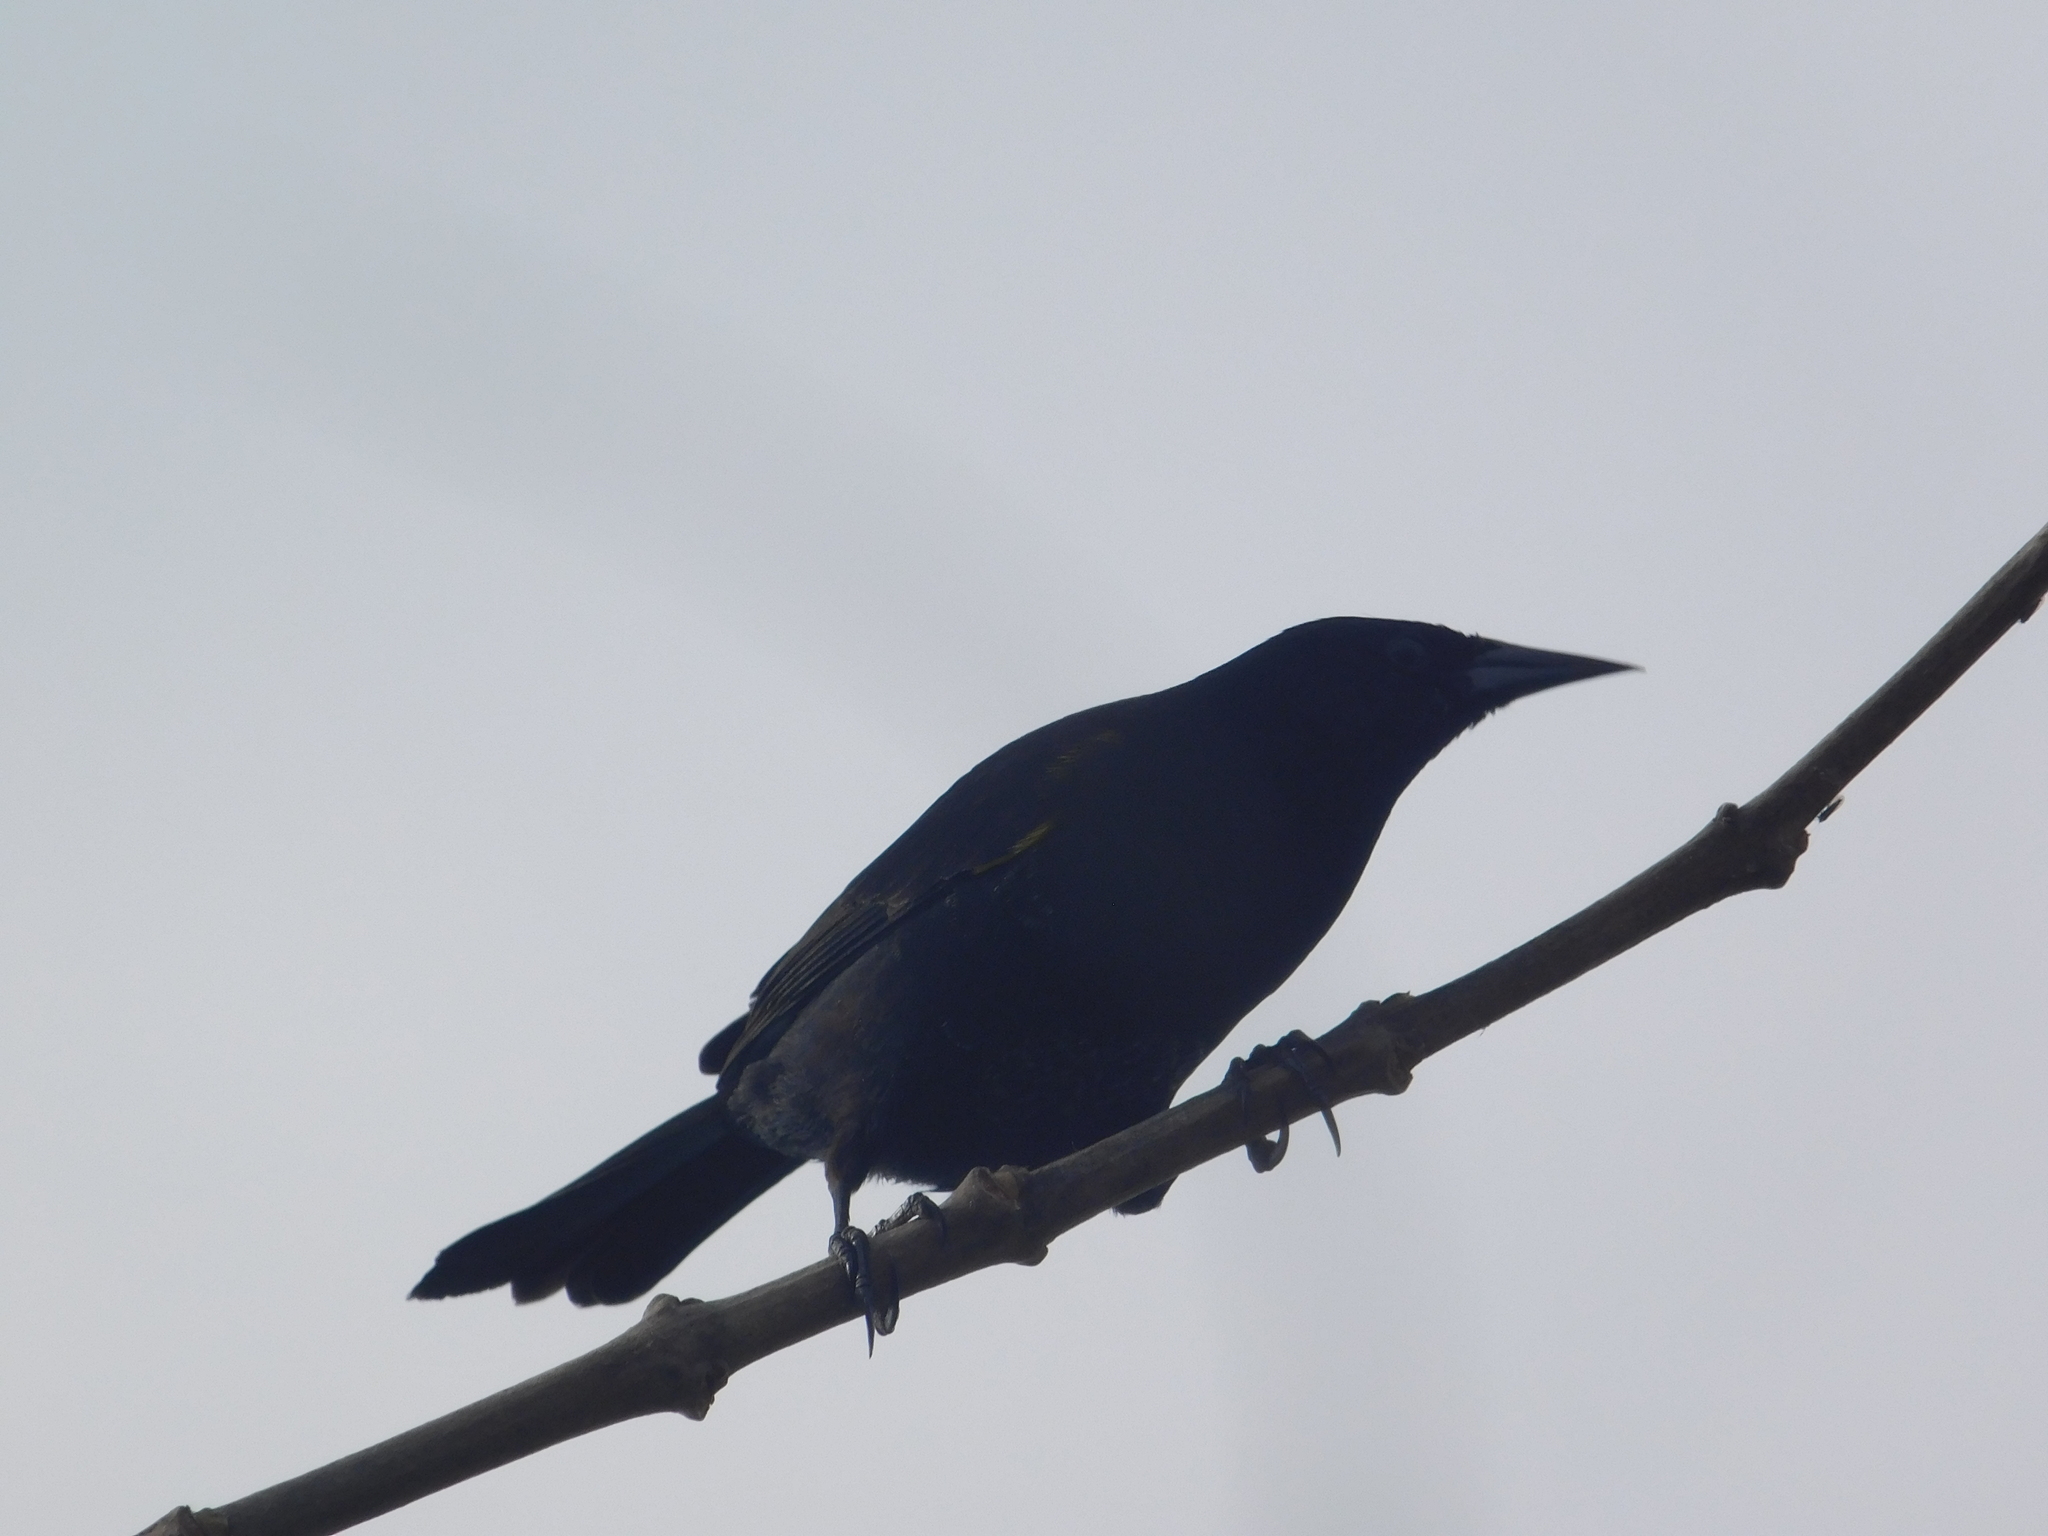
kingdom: Animalia
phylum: Chordata
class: Aves
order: Passeriformes
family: Icteridae
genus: Agelasticus
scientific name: Agelasticus thilius
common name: Yellow-winged blackbird
